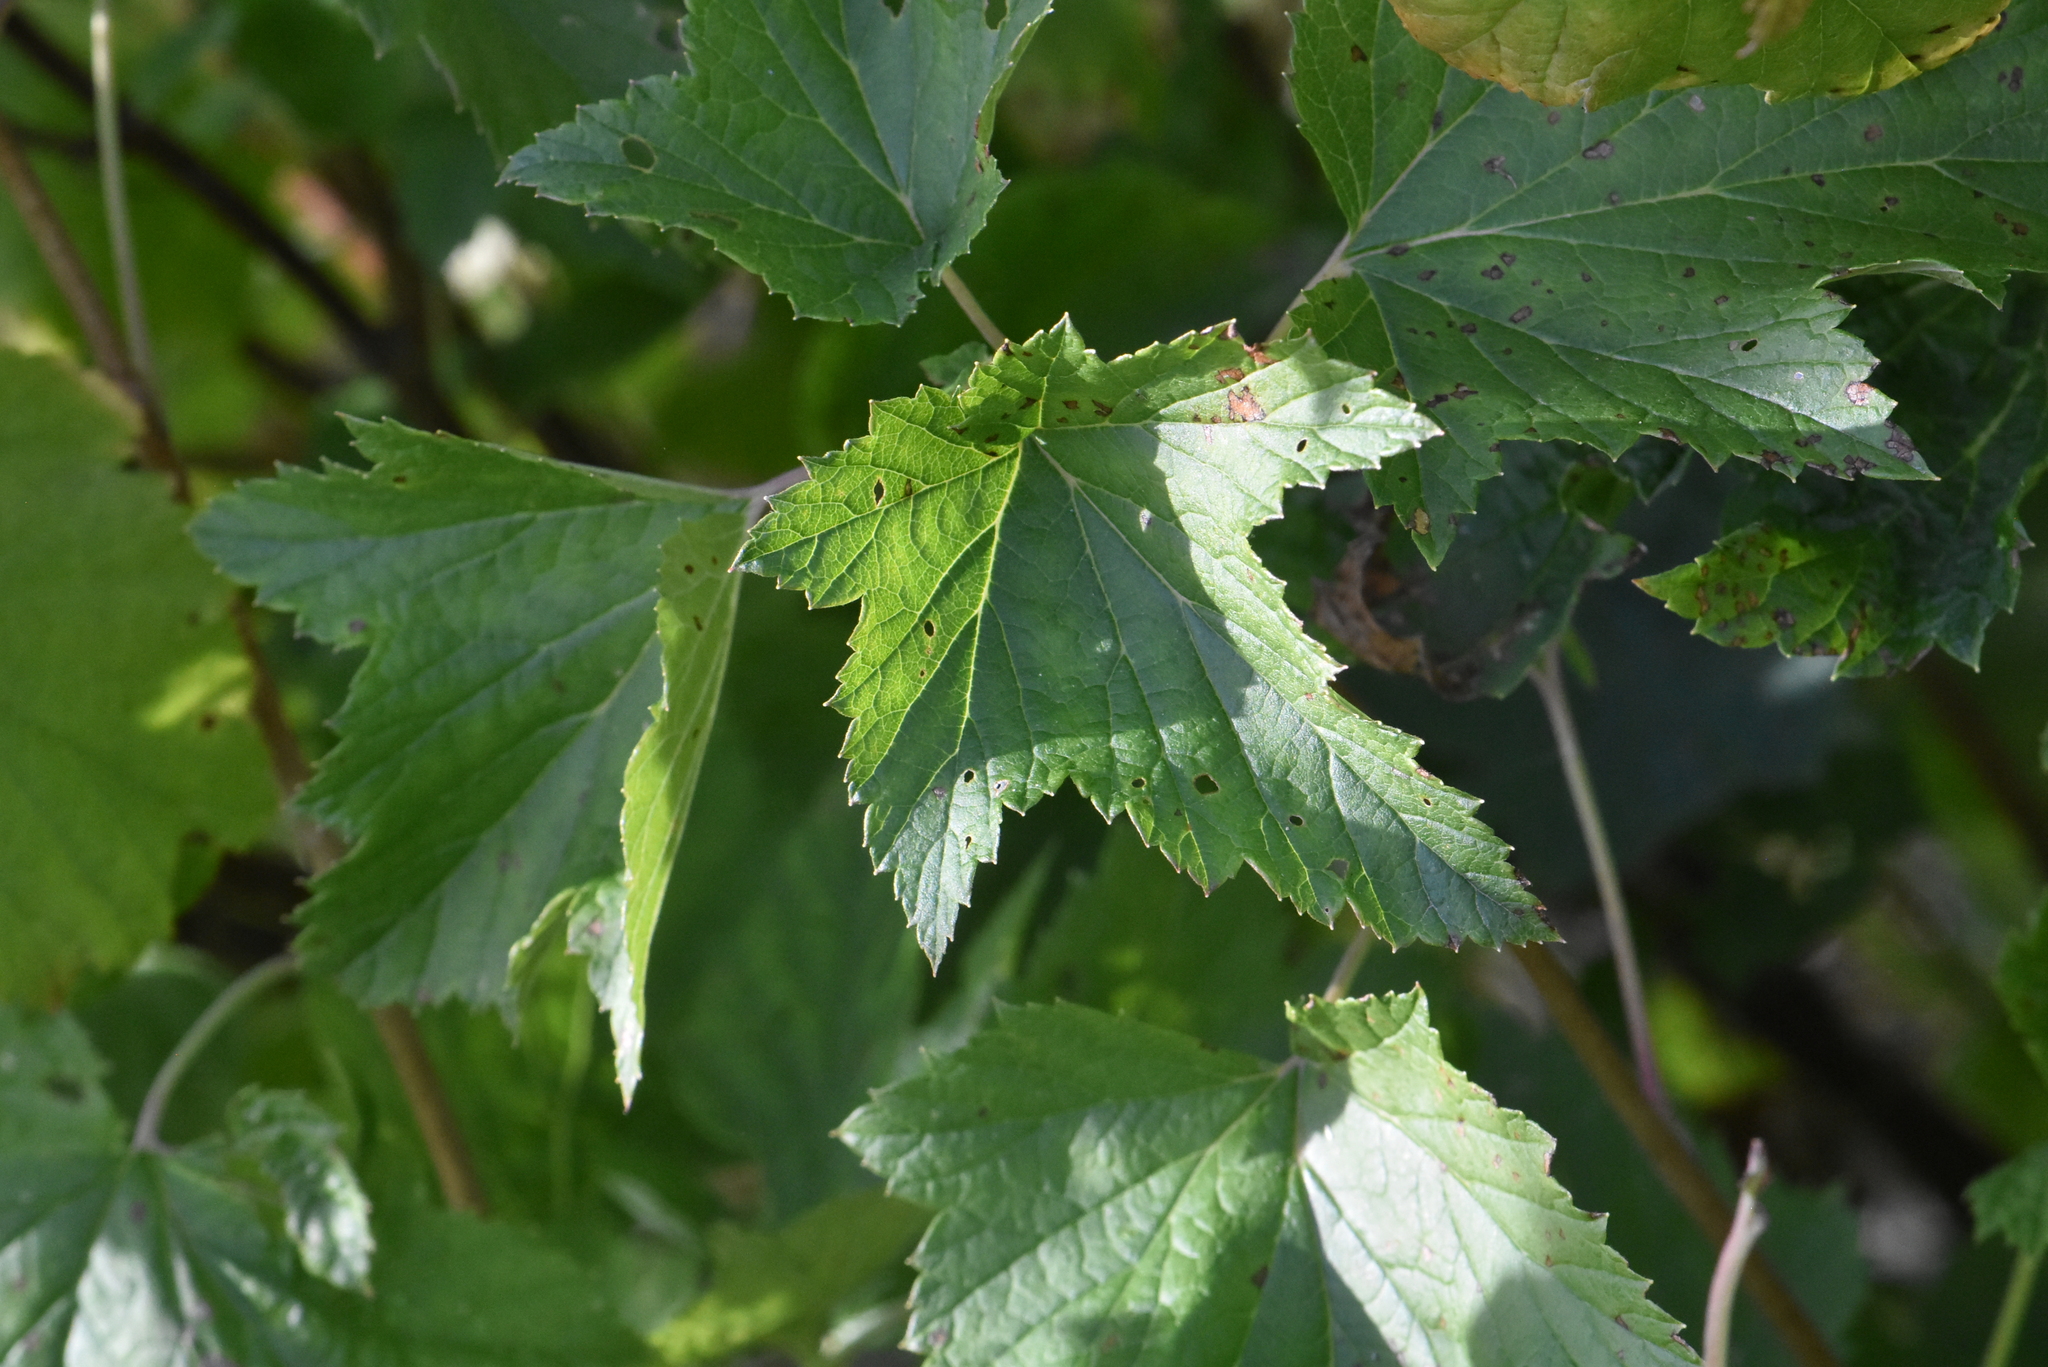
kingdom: Plantae
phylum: Tracheophyta
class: Magnoliopsida
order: Saxifragales
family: Grossulariaceae
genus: Ribes
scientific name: Ribes nigrum
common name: Black currant
